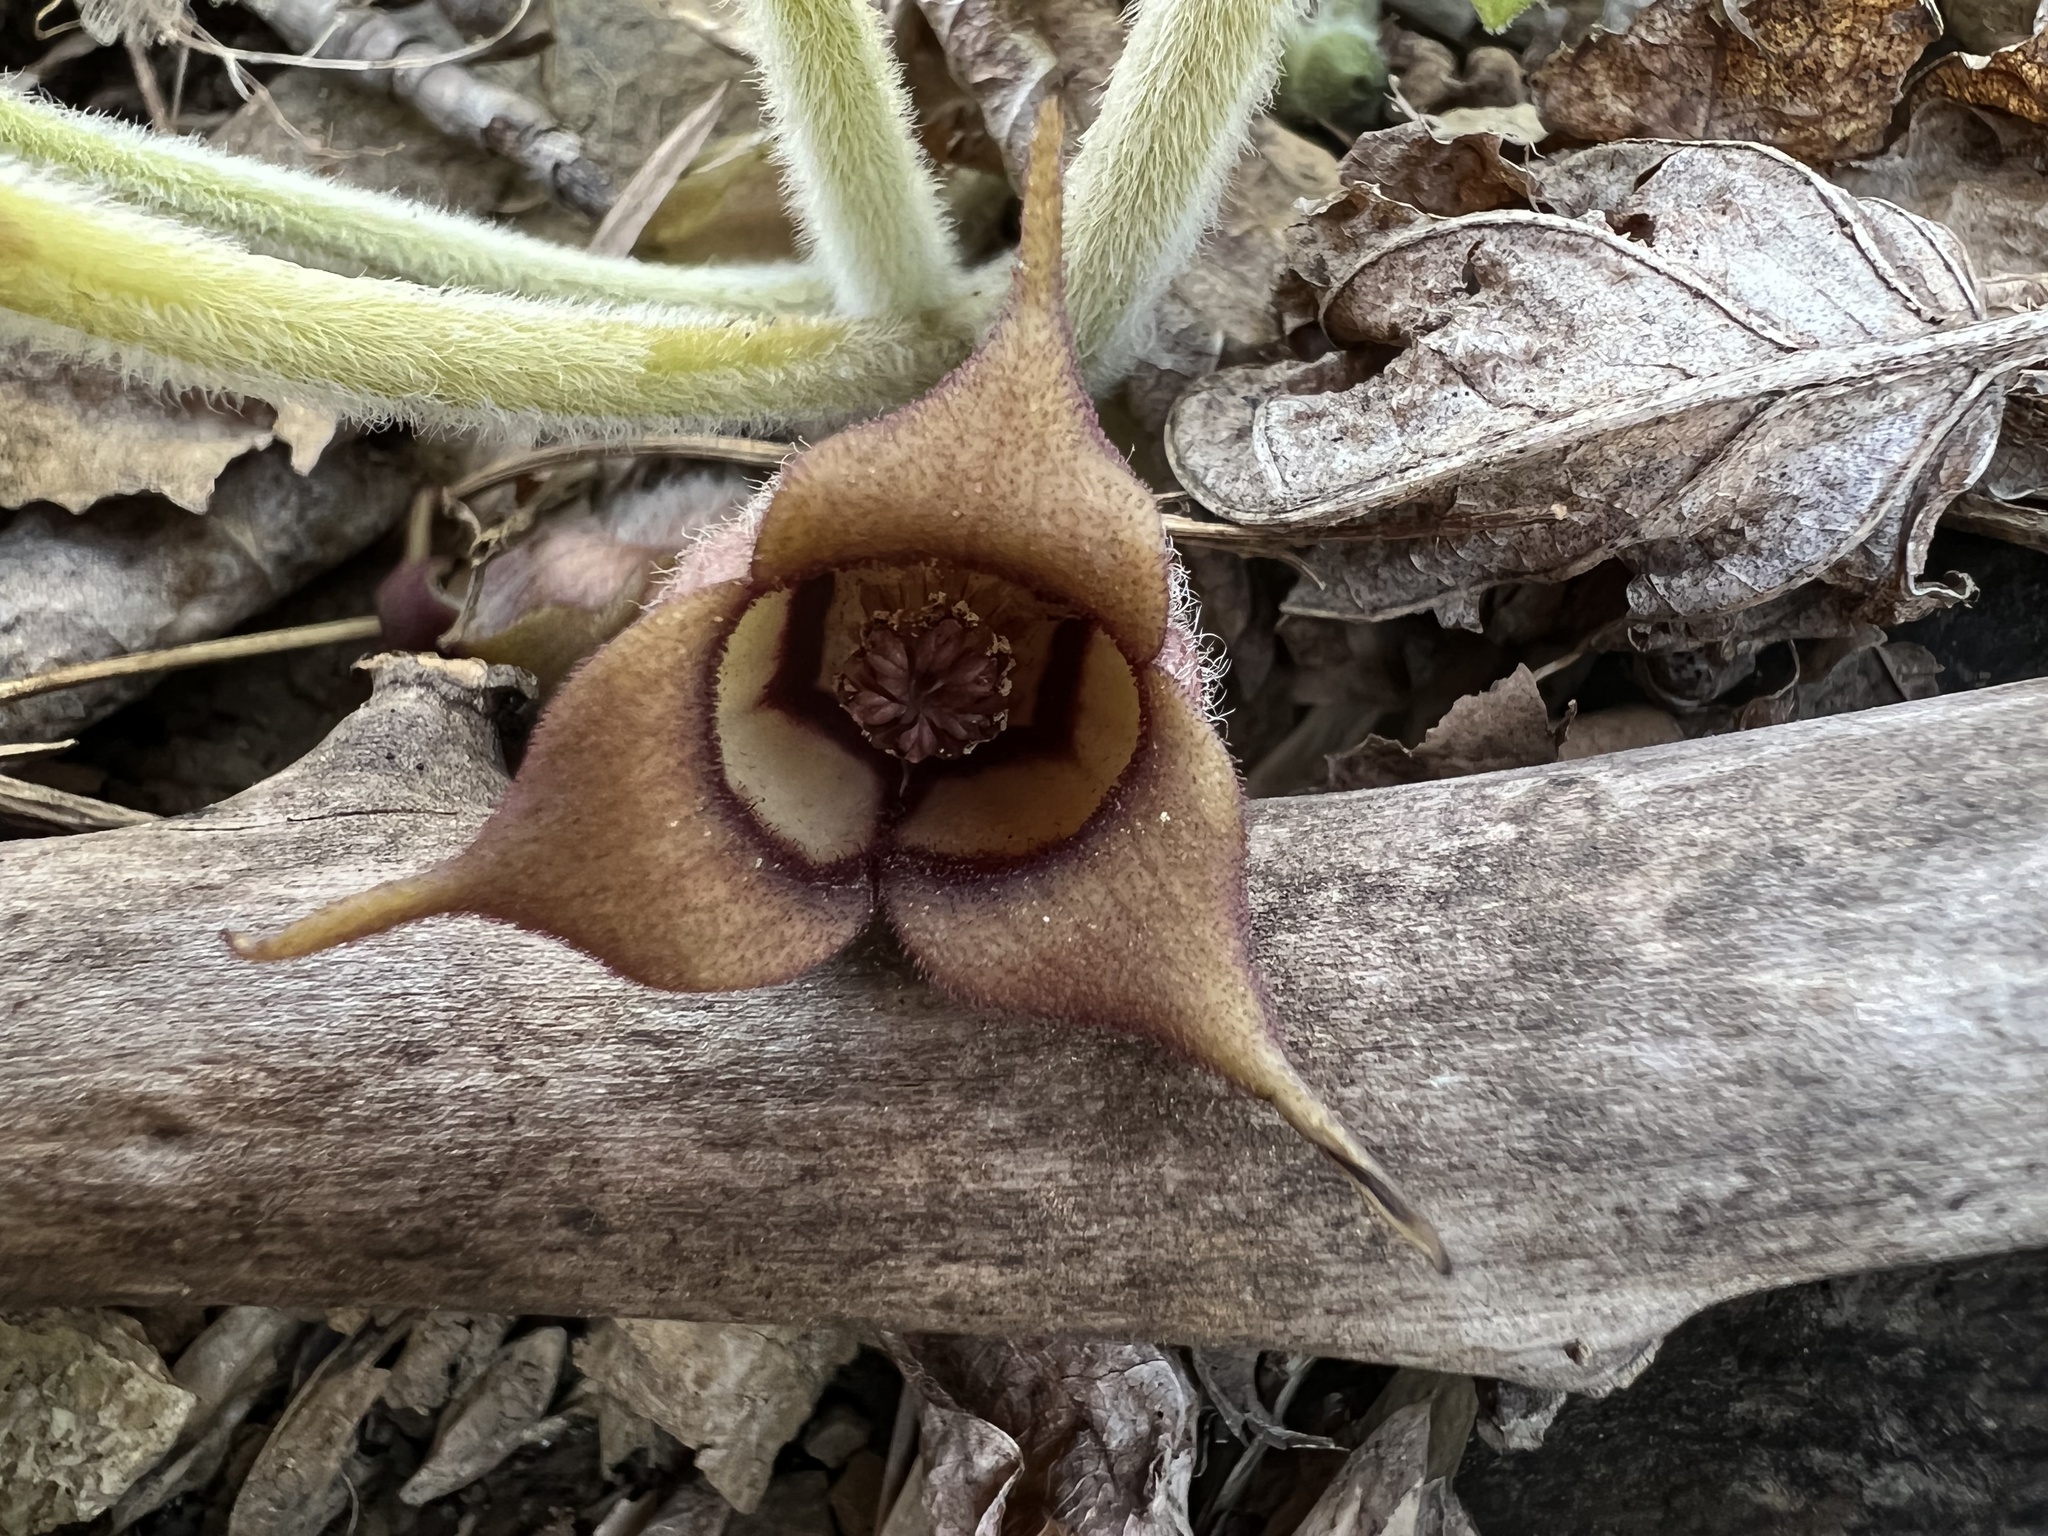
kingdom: Plantae
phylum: Tracheophyta
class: Magnoliopsida
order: Piperales
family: Aristolochiaceae
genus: Asarum
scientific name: Asarum canadense
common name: Wild ginger
